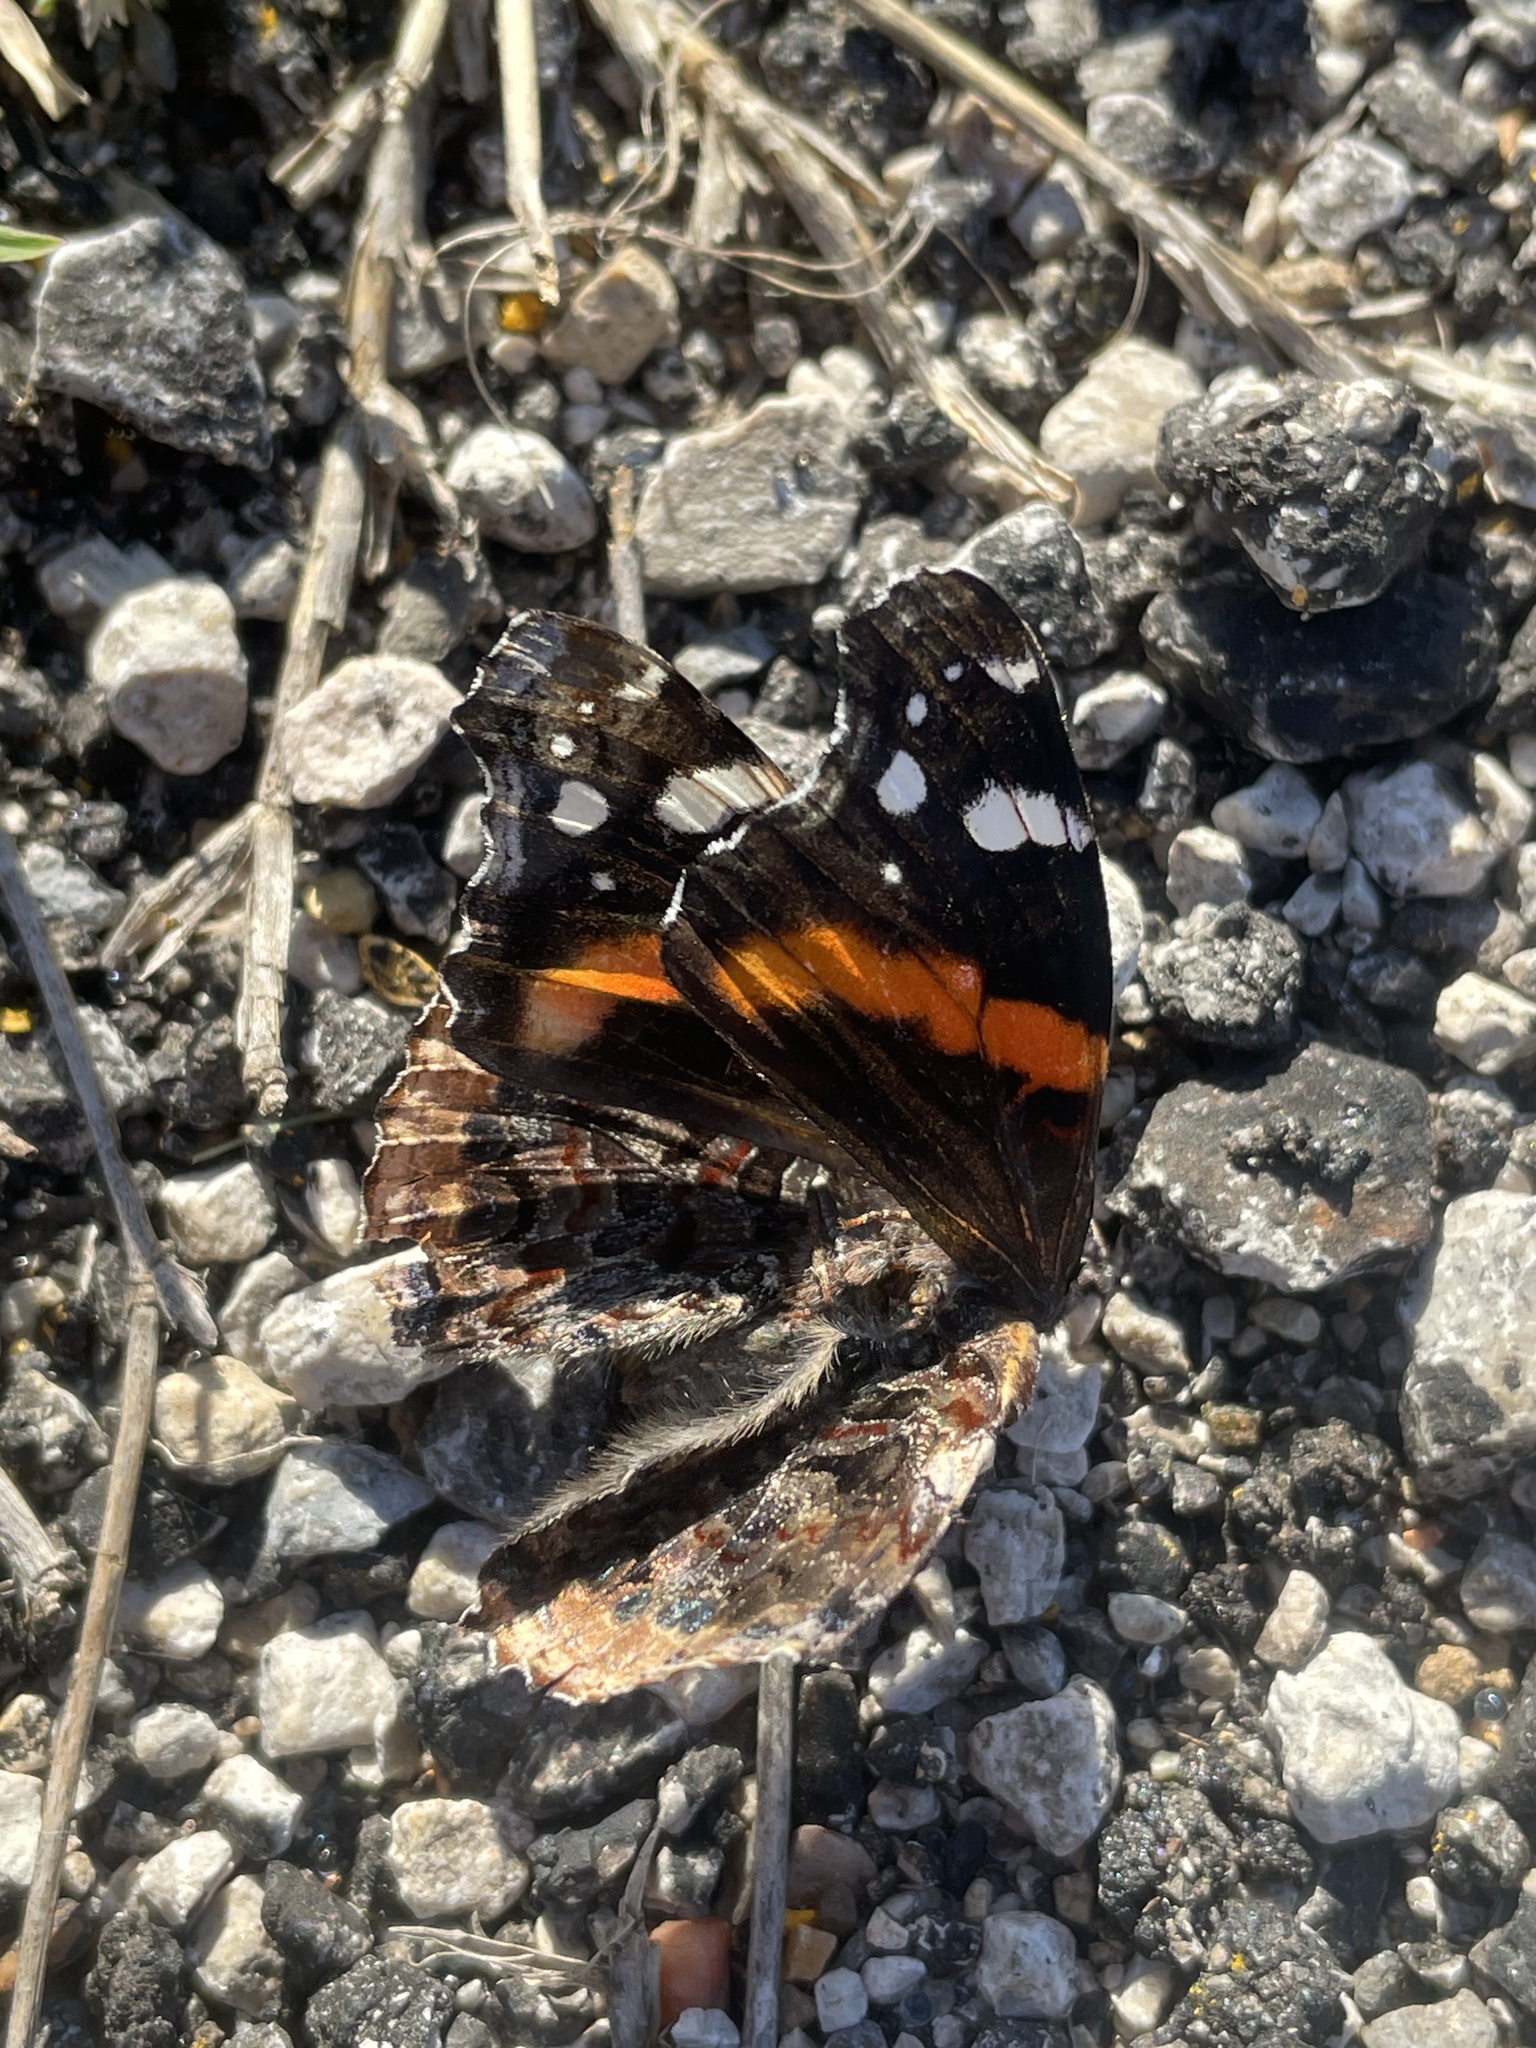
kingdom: Animalia
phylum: Arthropoda
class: Insecta
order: Lepidoptera
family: Nymphalidae
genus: Vanessa
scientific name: Vanessa atalanta
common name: Red admiral
